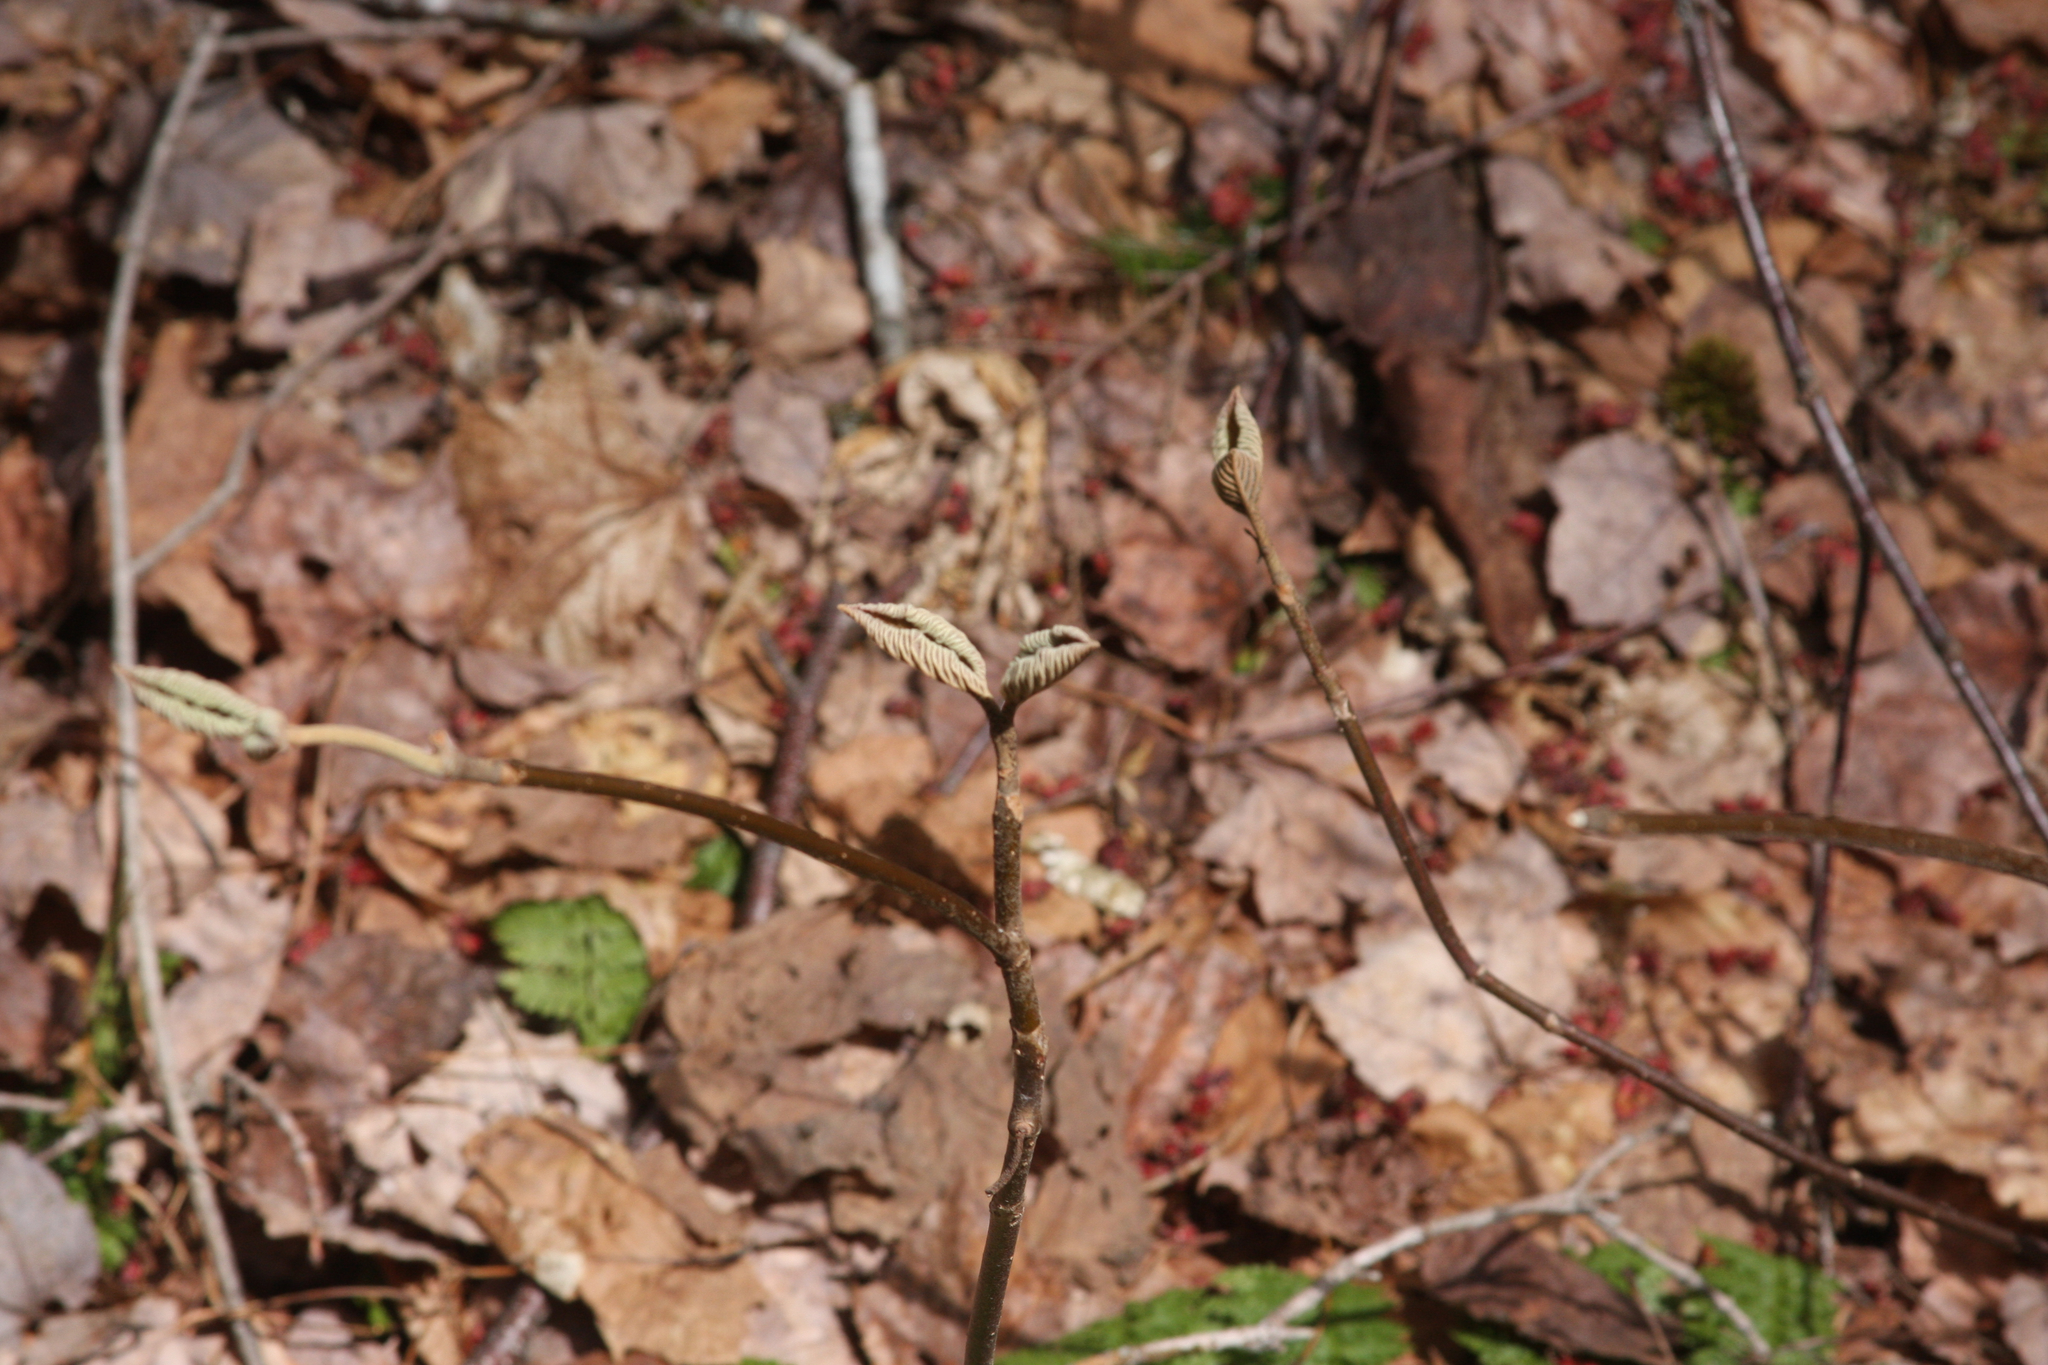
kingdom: Plantae
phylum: Tracheophyta
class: Magnoliopsida
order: Dipsacales
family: Viburnaceae
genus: Viburnum
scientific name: Viburnum lantanoides
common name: Hobblebush
